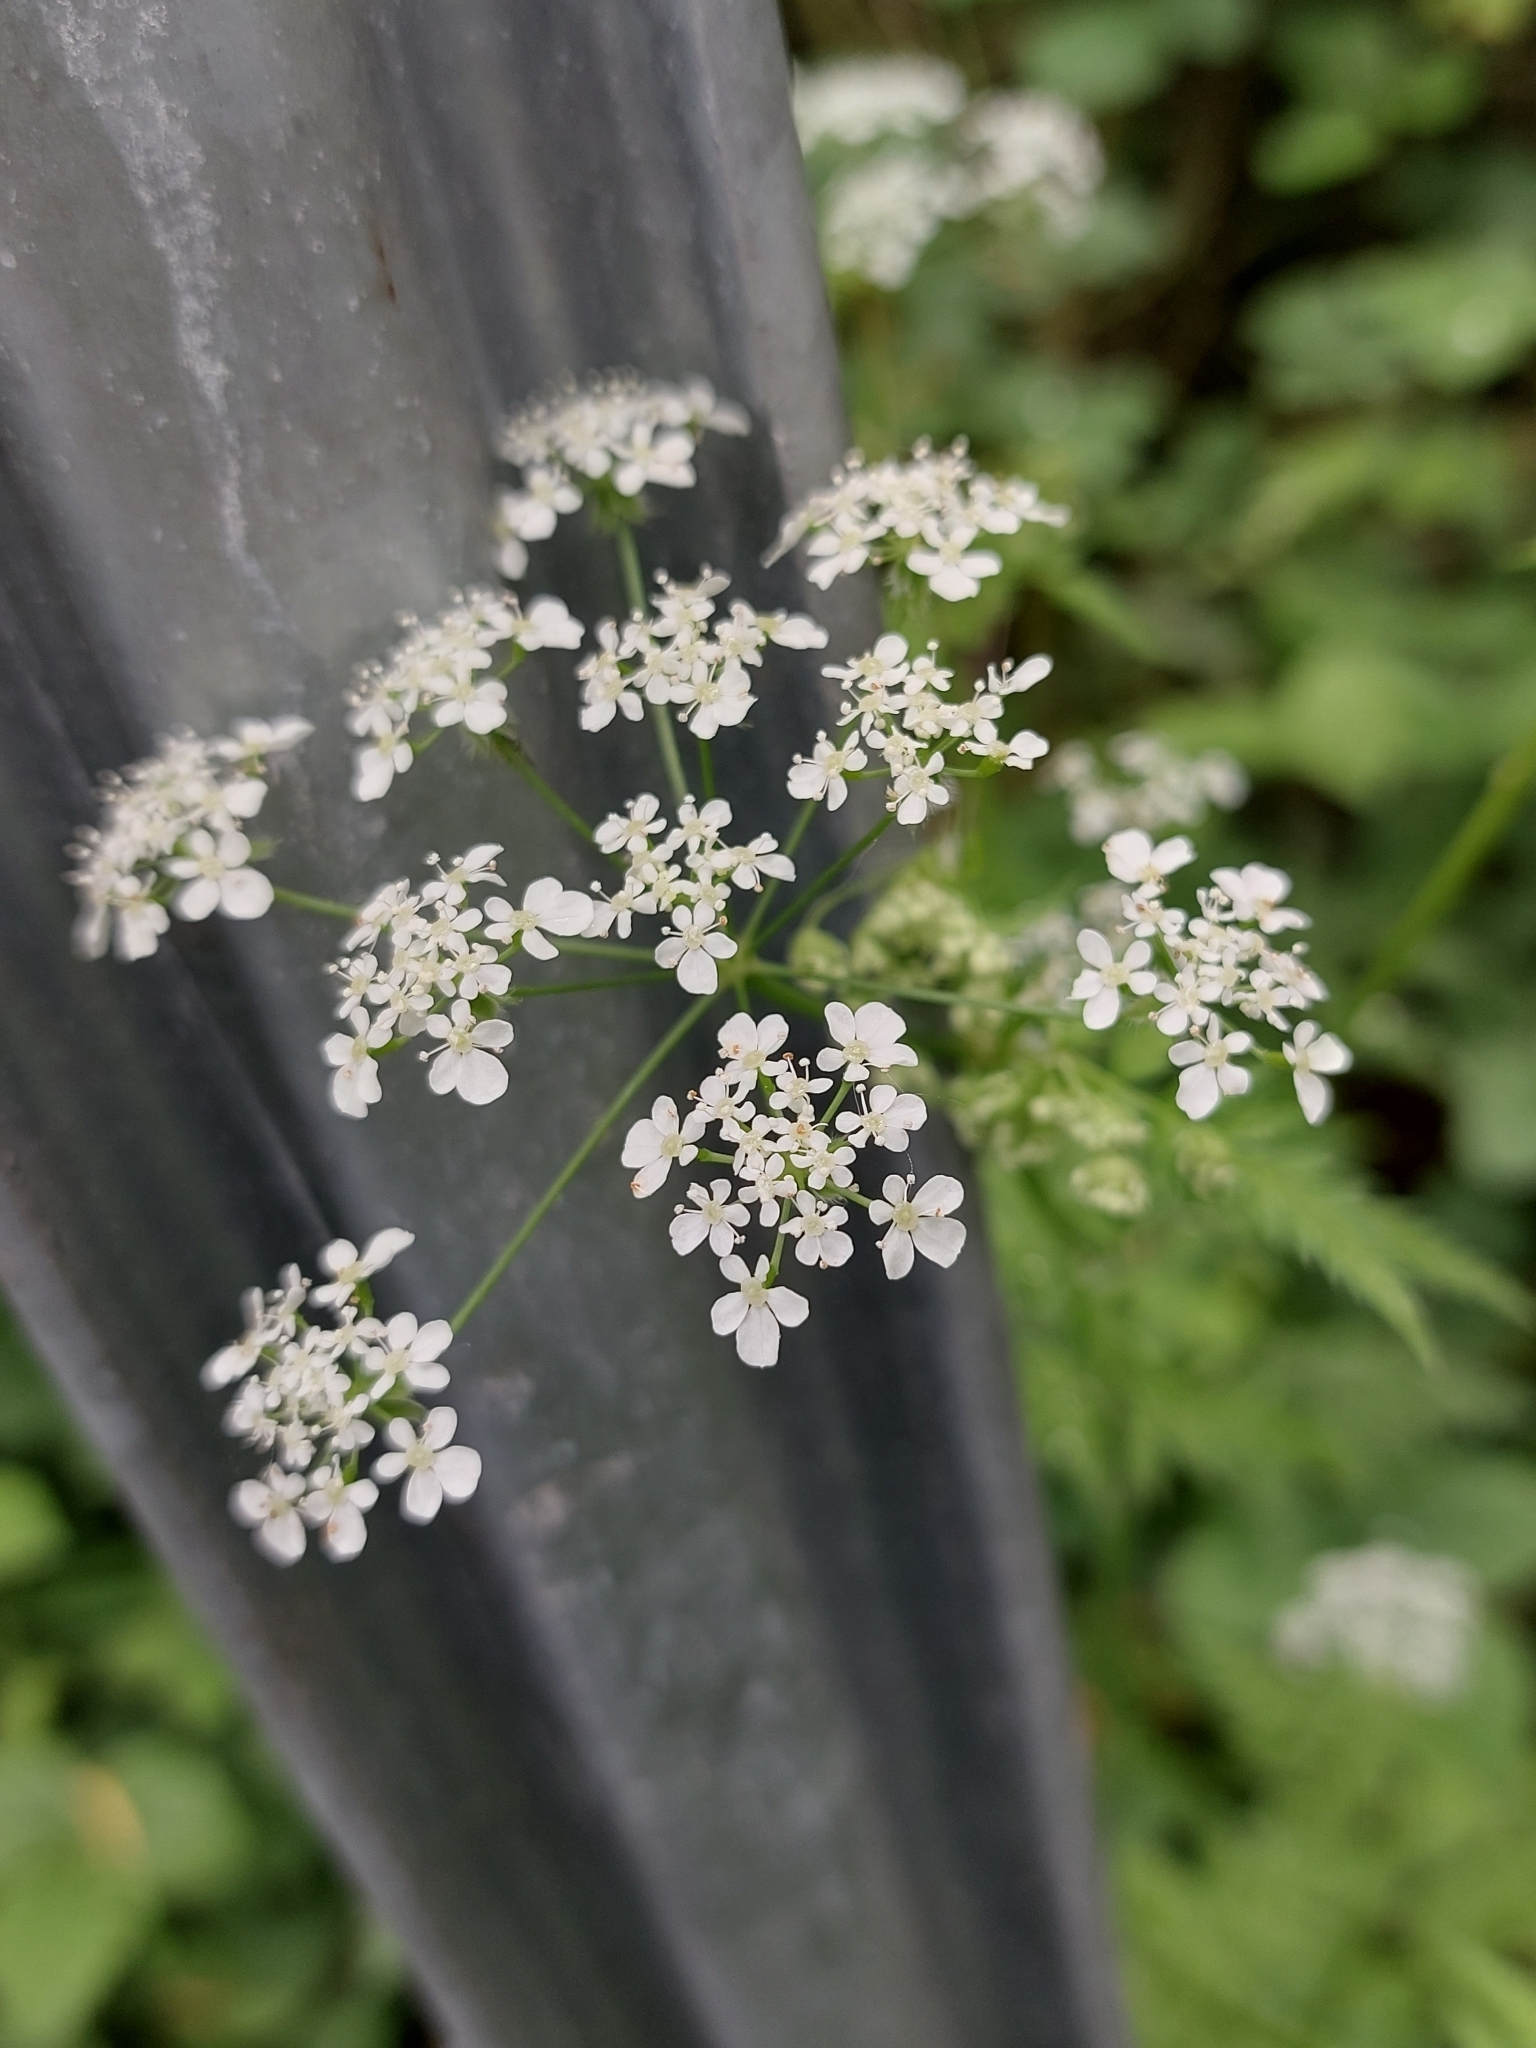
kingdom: Plantae
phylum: Tracheophyta
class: Magnoliopsida
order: Apiales
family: Apiaceae
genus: Anthriscus
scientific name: Anthriscus sylvestris
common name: Cow parsley
